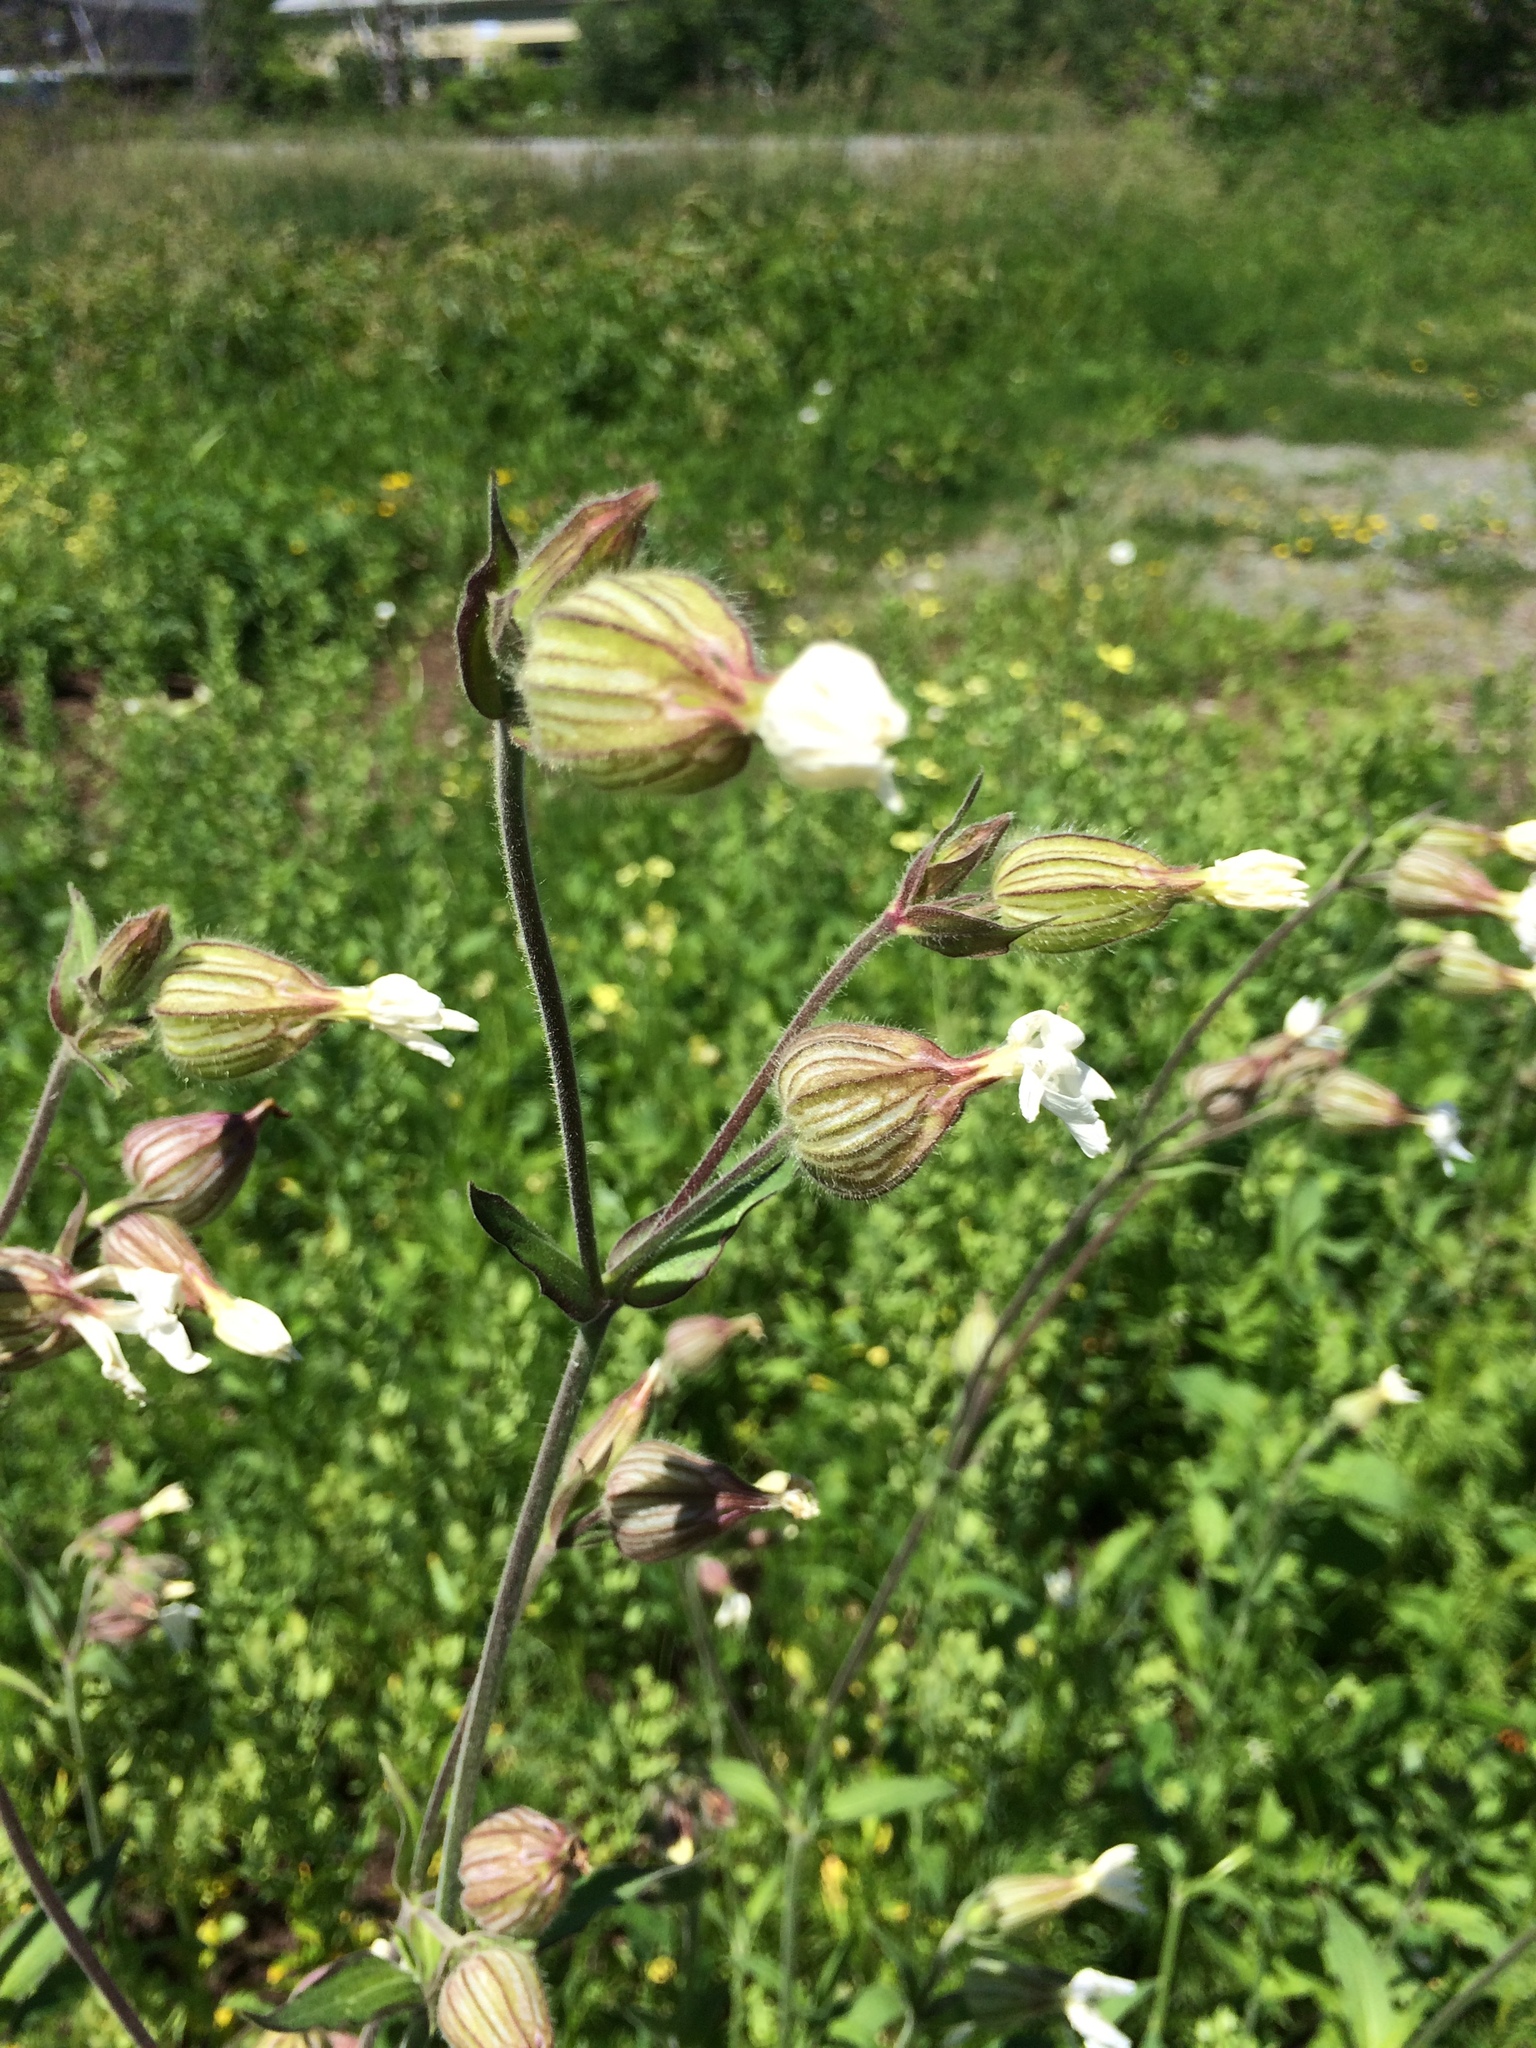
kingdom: Plantae
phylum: Tracheophyta
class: Magnoliopsida
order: Caryophyllales
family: Caryophyllaceae
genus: Silene
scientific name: Silene latifolia
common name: White campion
